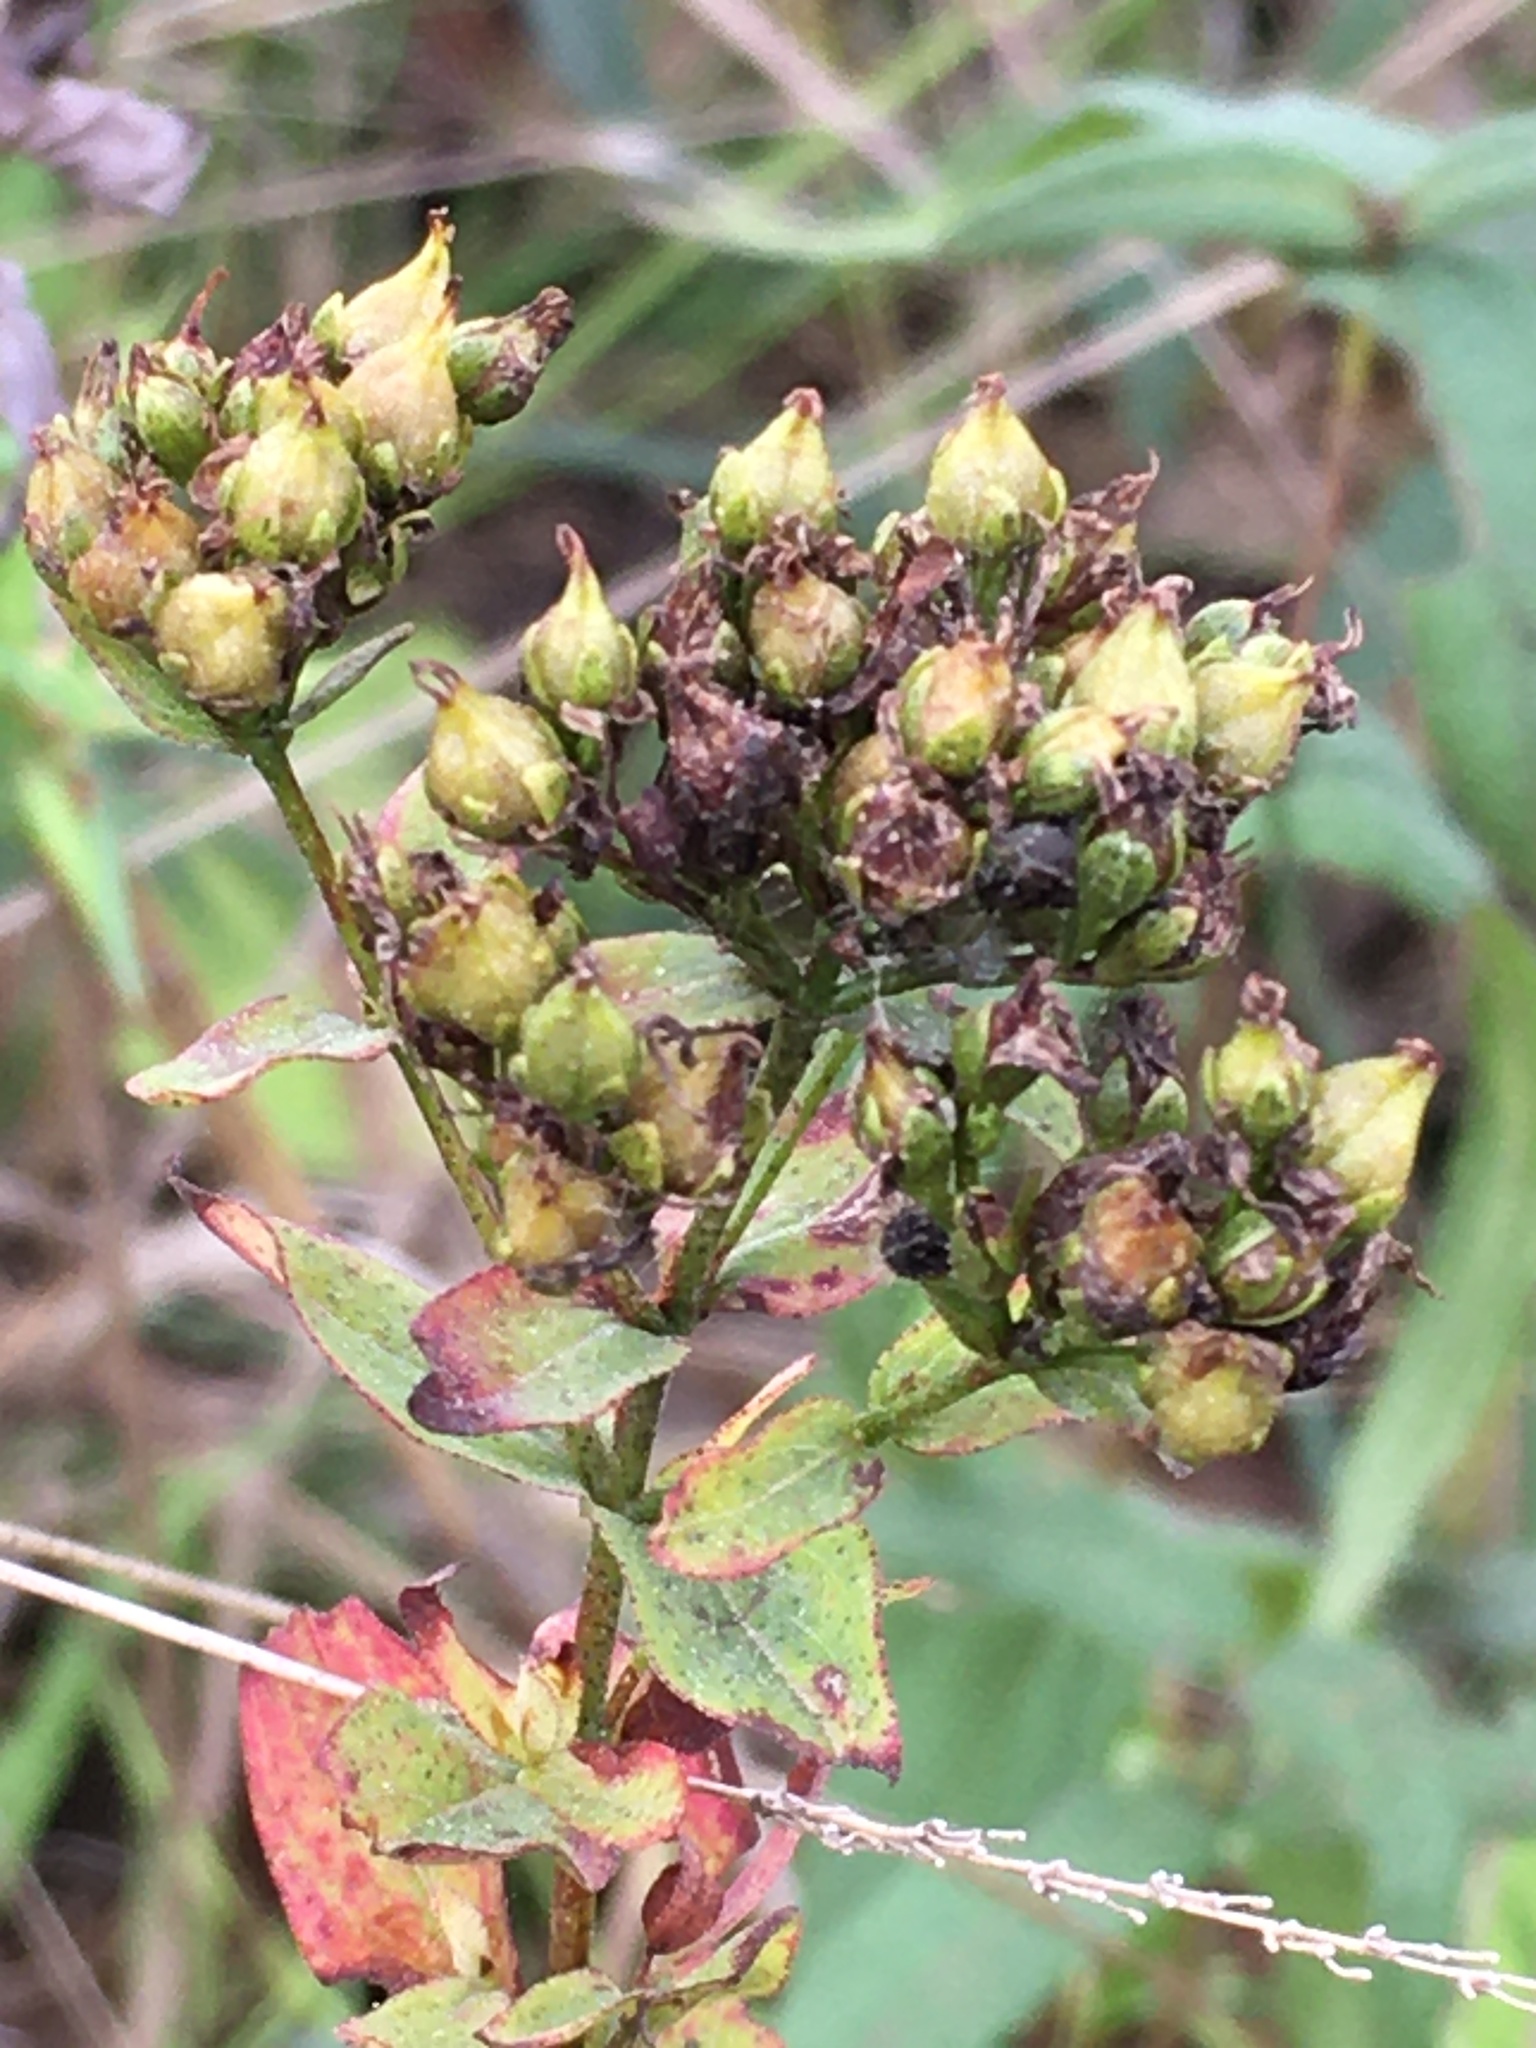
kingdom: Plantae
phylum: Tracheophyta
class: Magnoliopsida
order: Malpighiales
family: Hypericaceae
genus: Hypericum
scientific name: Hypericum punctatum
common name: Spotted st. john's-wort
